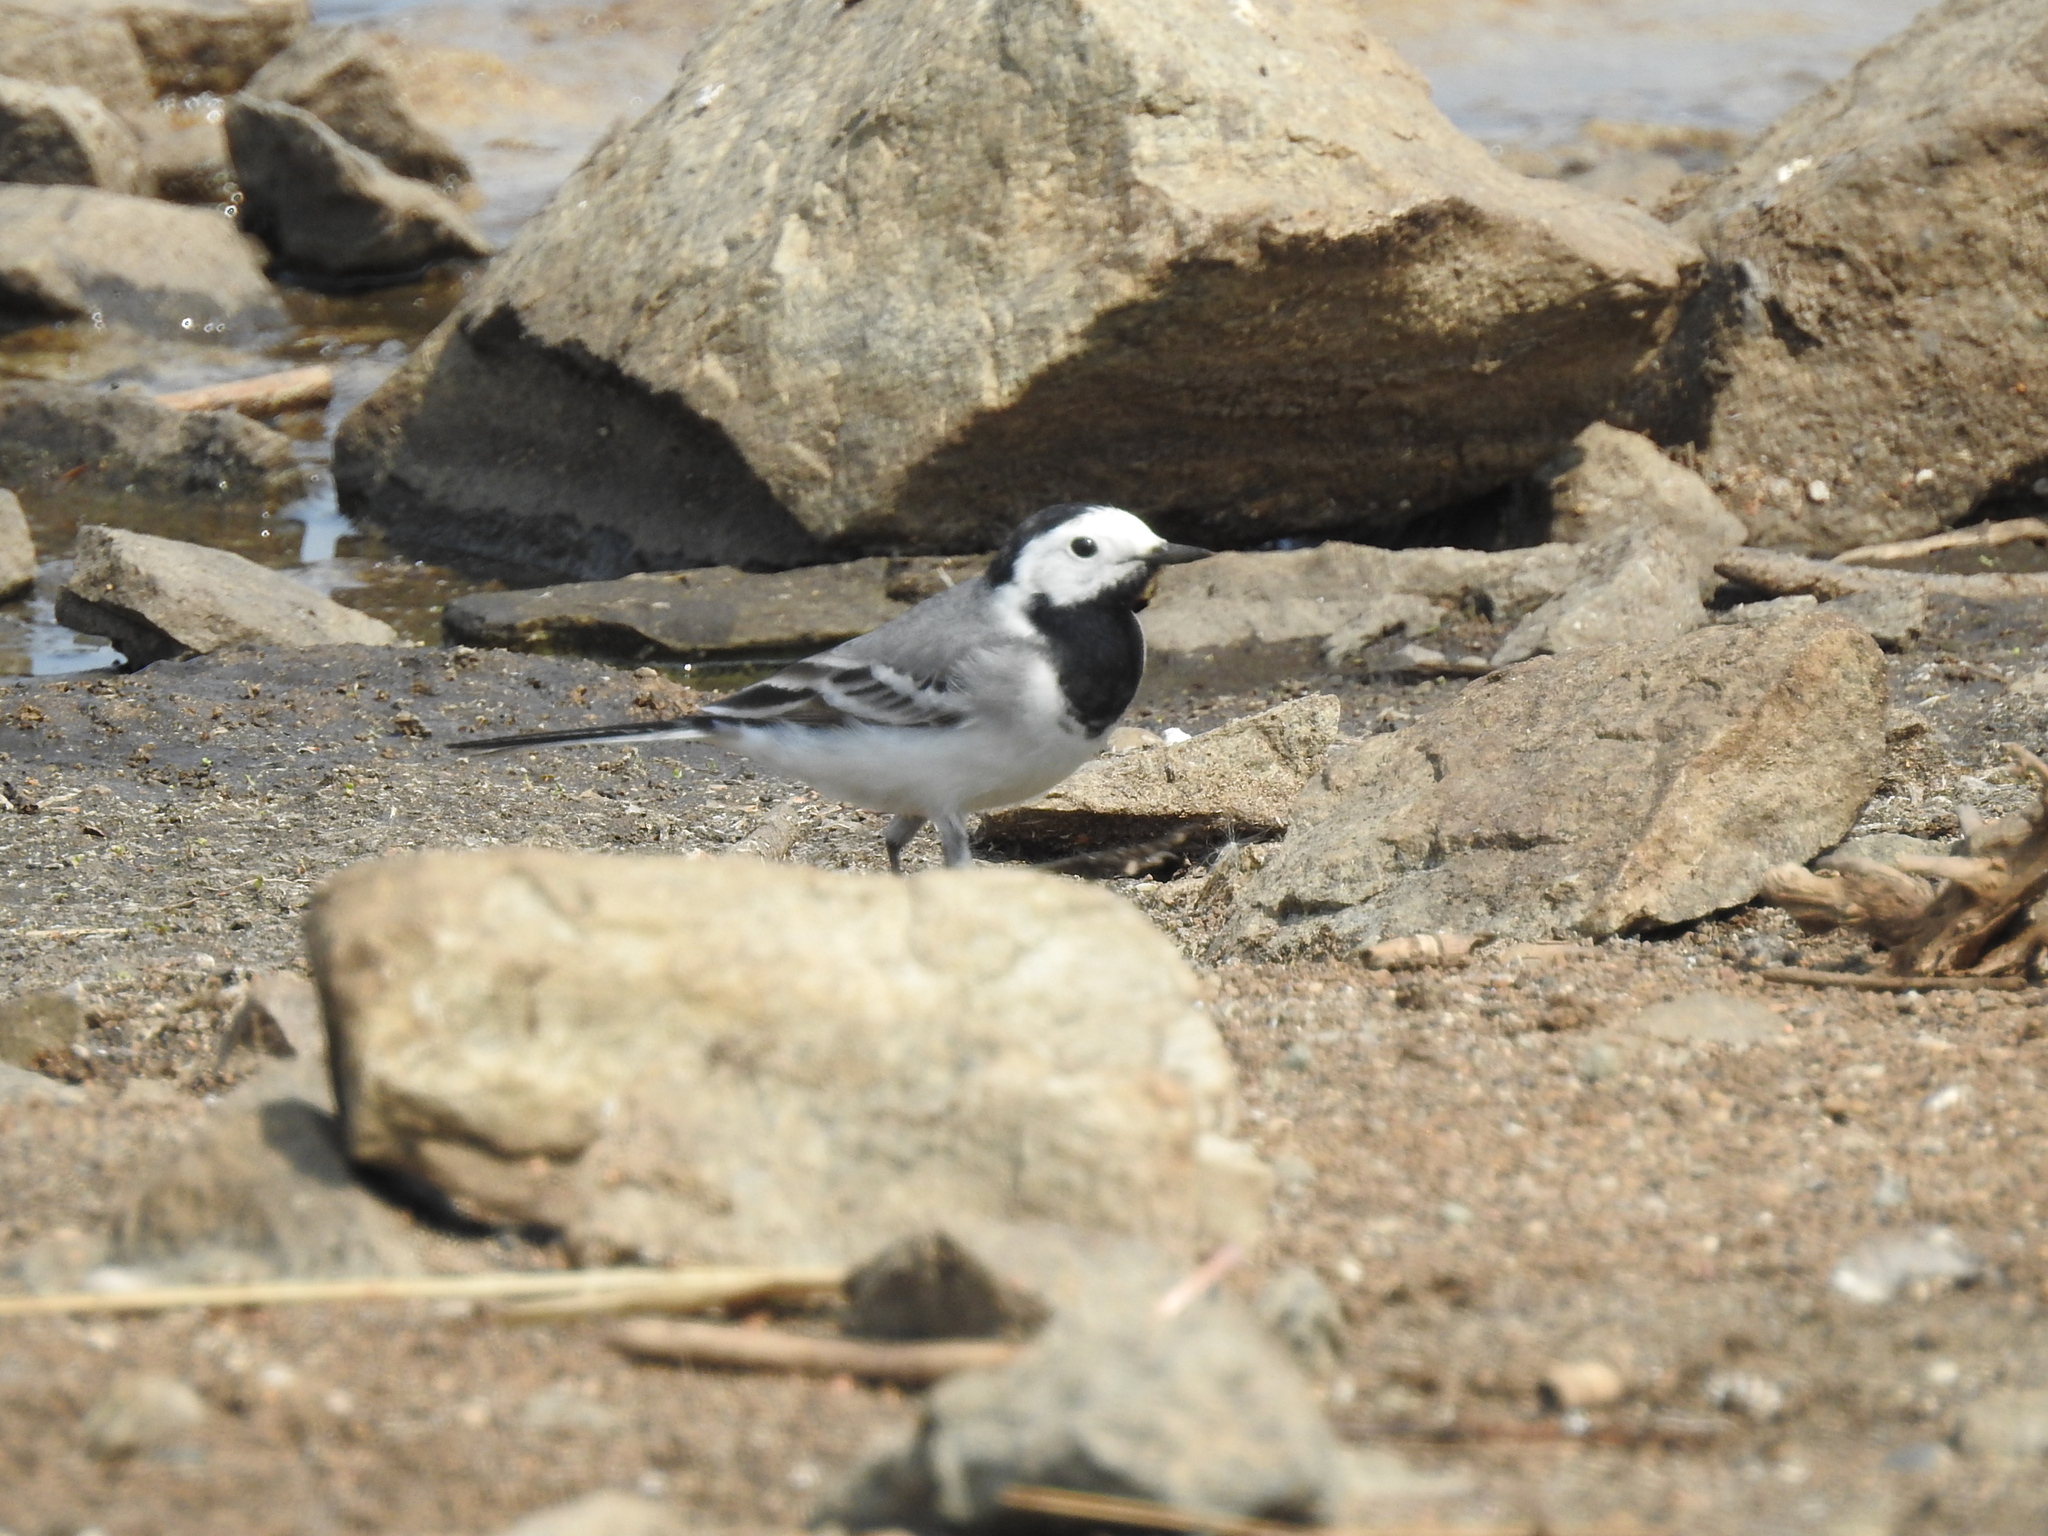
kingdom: Animalia
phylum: Chordata
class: Aves
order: Passeriformes
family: Motacillidae
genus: Motacilla
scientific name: Motacilla alba
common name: White wagtail
